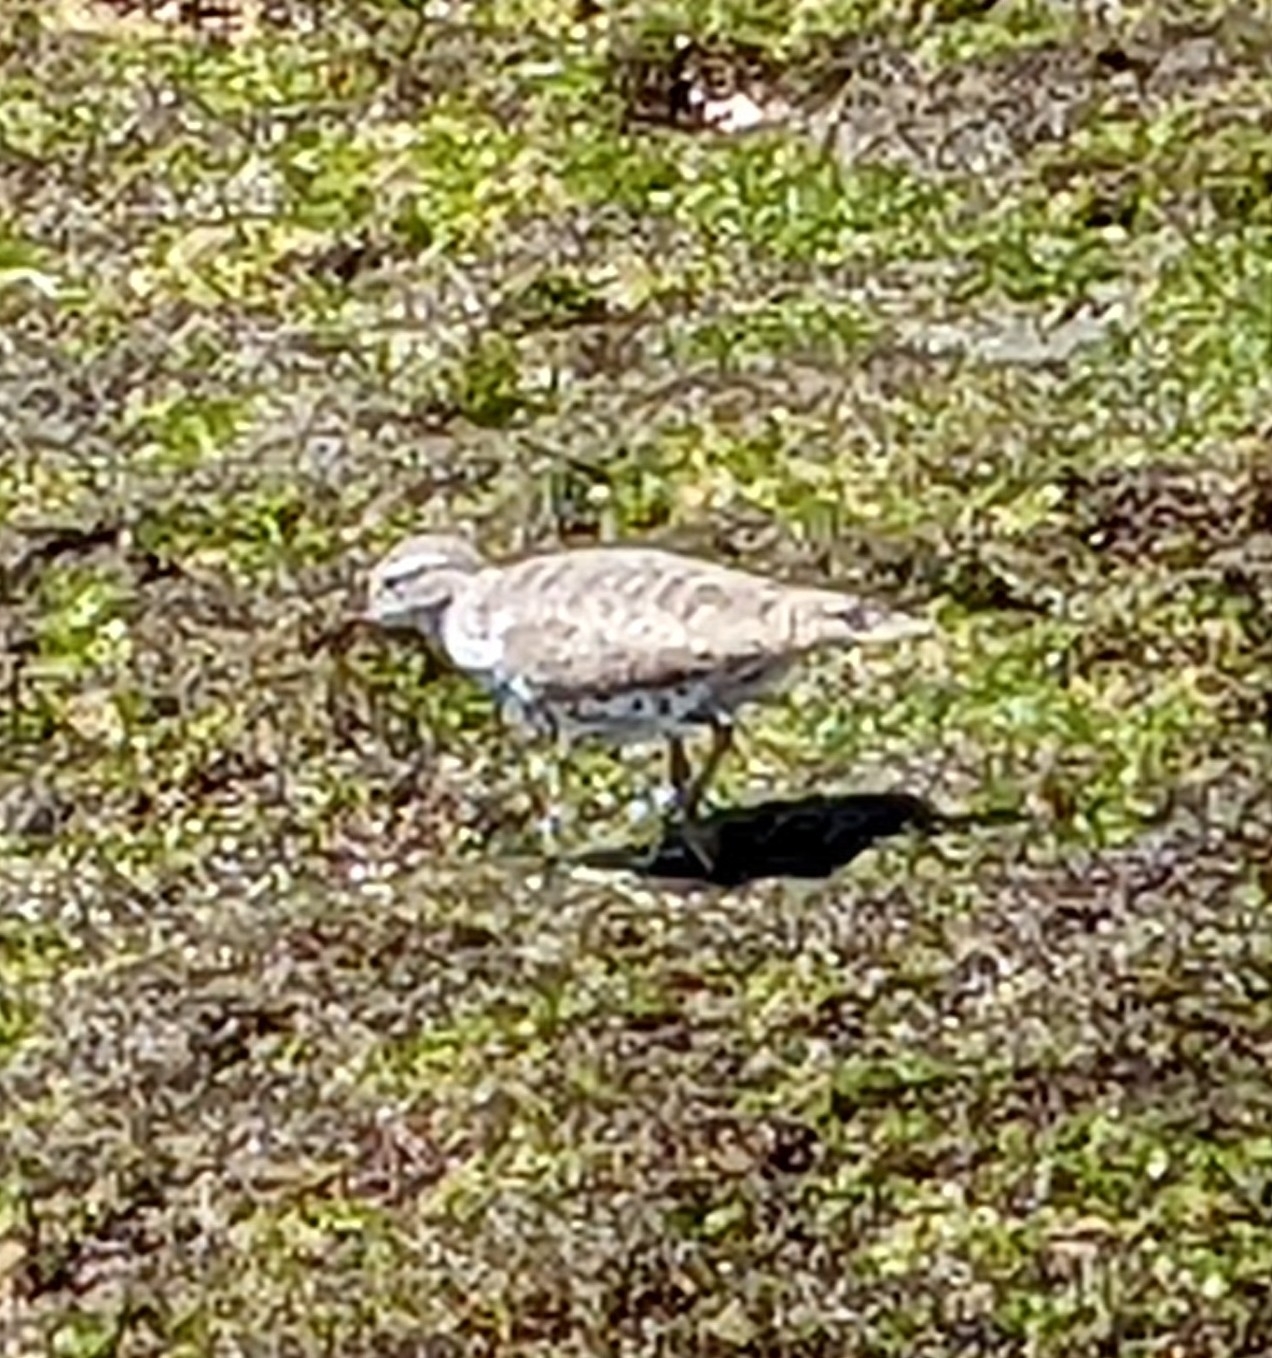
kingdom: Animalia
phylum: Chordata
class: Aves
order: Charadriiformes
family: Scolopacidae
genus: Actitis
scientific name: Actitis macularius
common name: Spotted sandpiper
